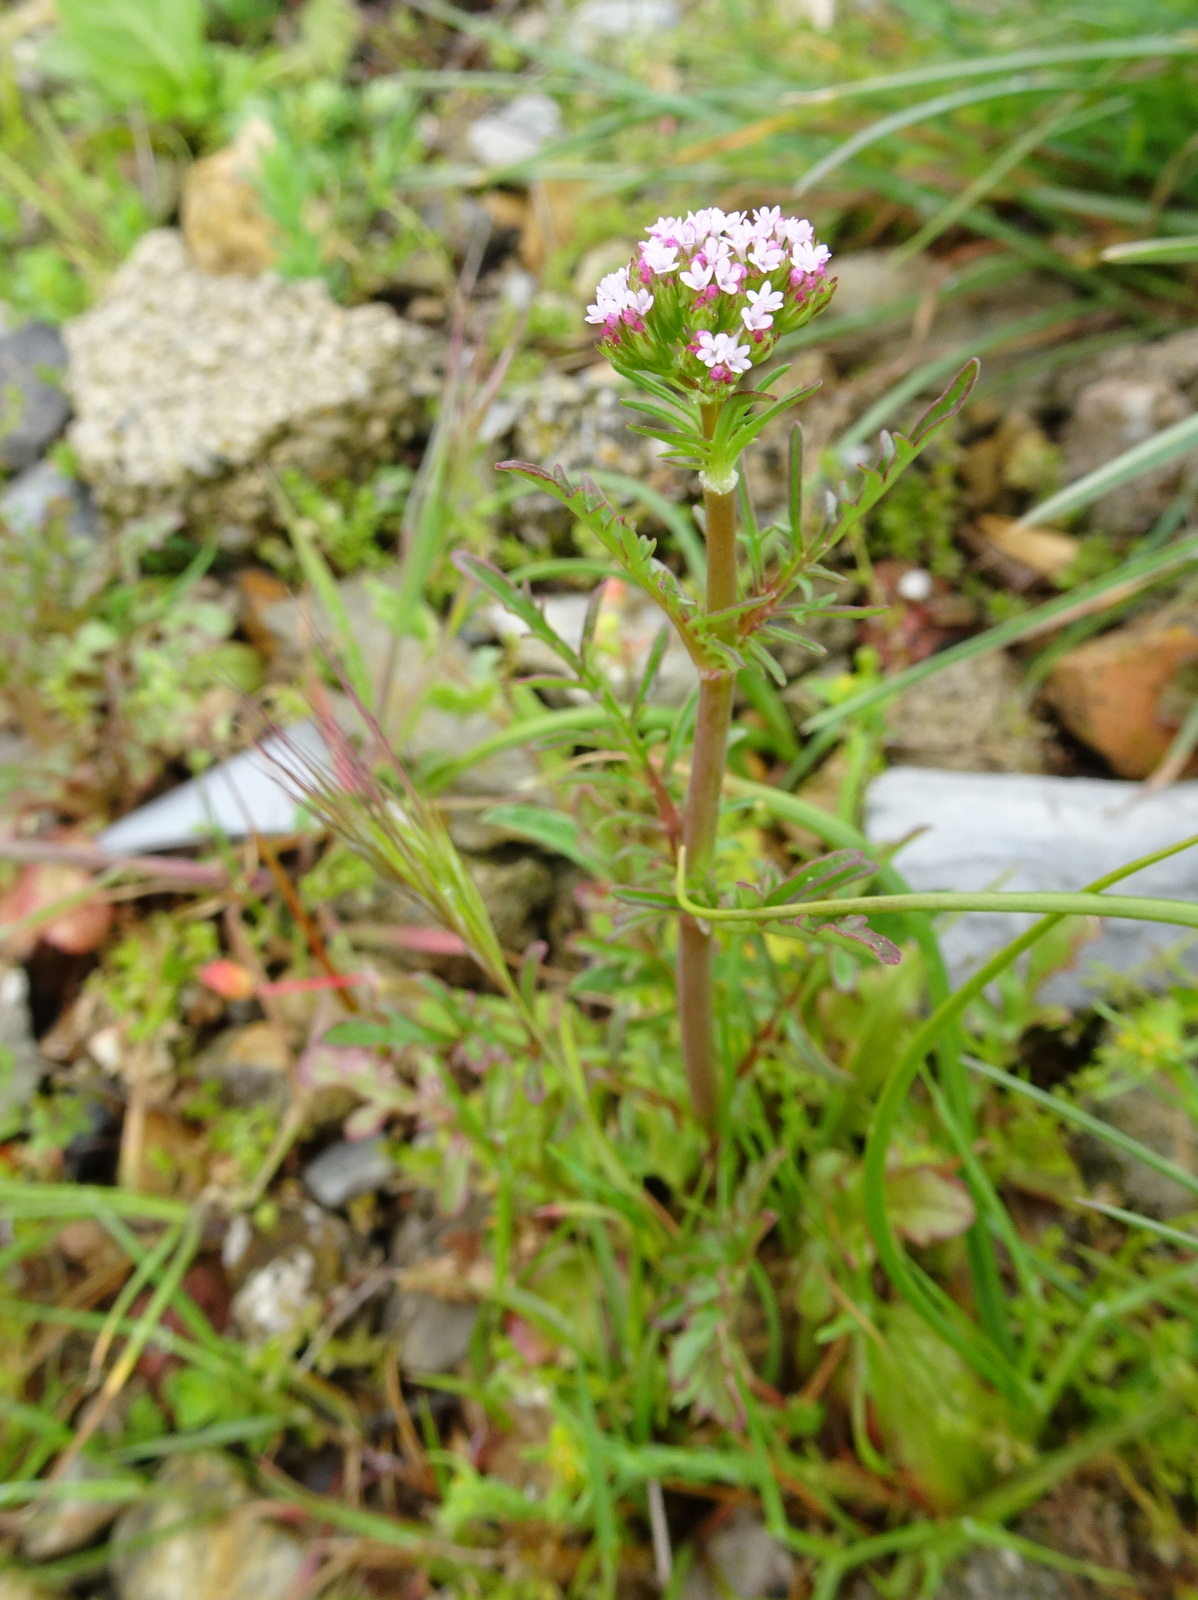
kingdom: Plantae
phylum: Tracheophyta
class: Magnoliopsida
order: Dipsacales
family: Caprifoliaceae
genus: Centranthus
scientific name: Centranthus calcitrapae
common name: Annual valerian
